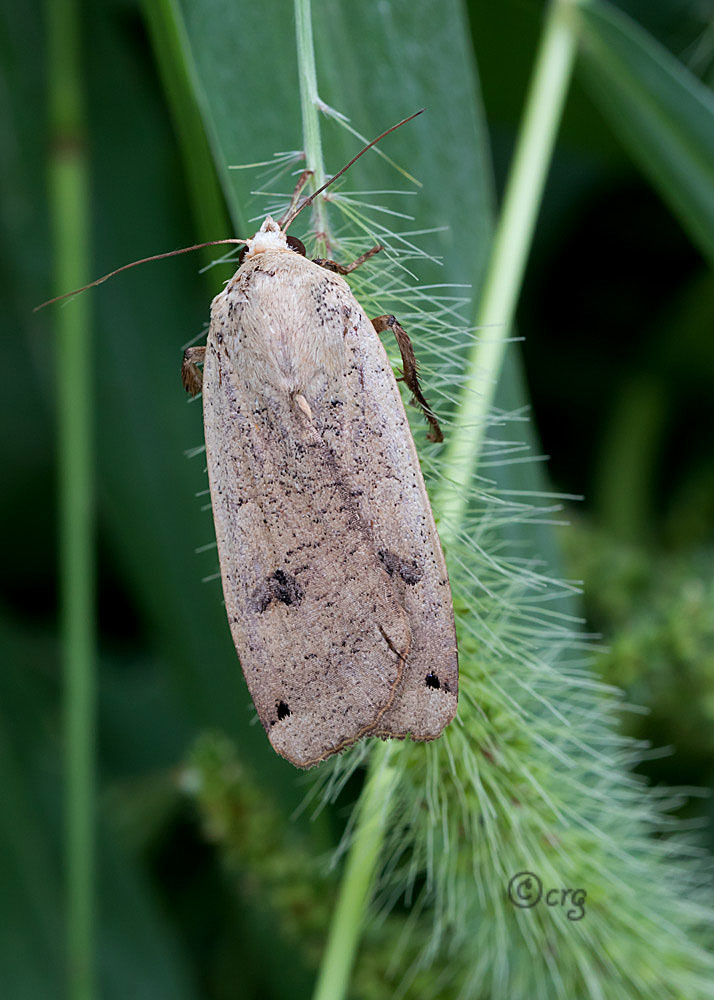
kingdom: Animalia
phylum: Arthropoda
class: Insecta
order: Lepidoptera
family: Noctuidae
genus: Noctua
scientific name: Noctua pronuba
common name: Large yellow underwing
